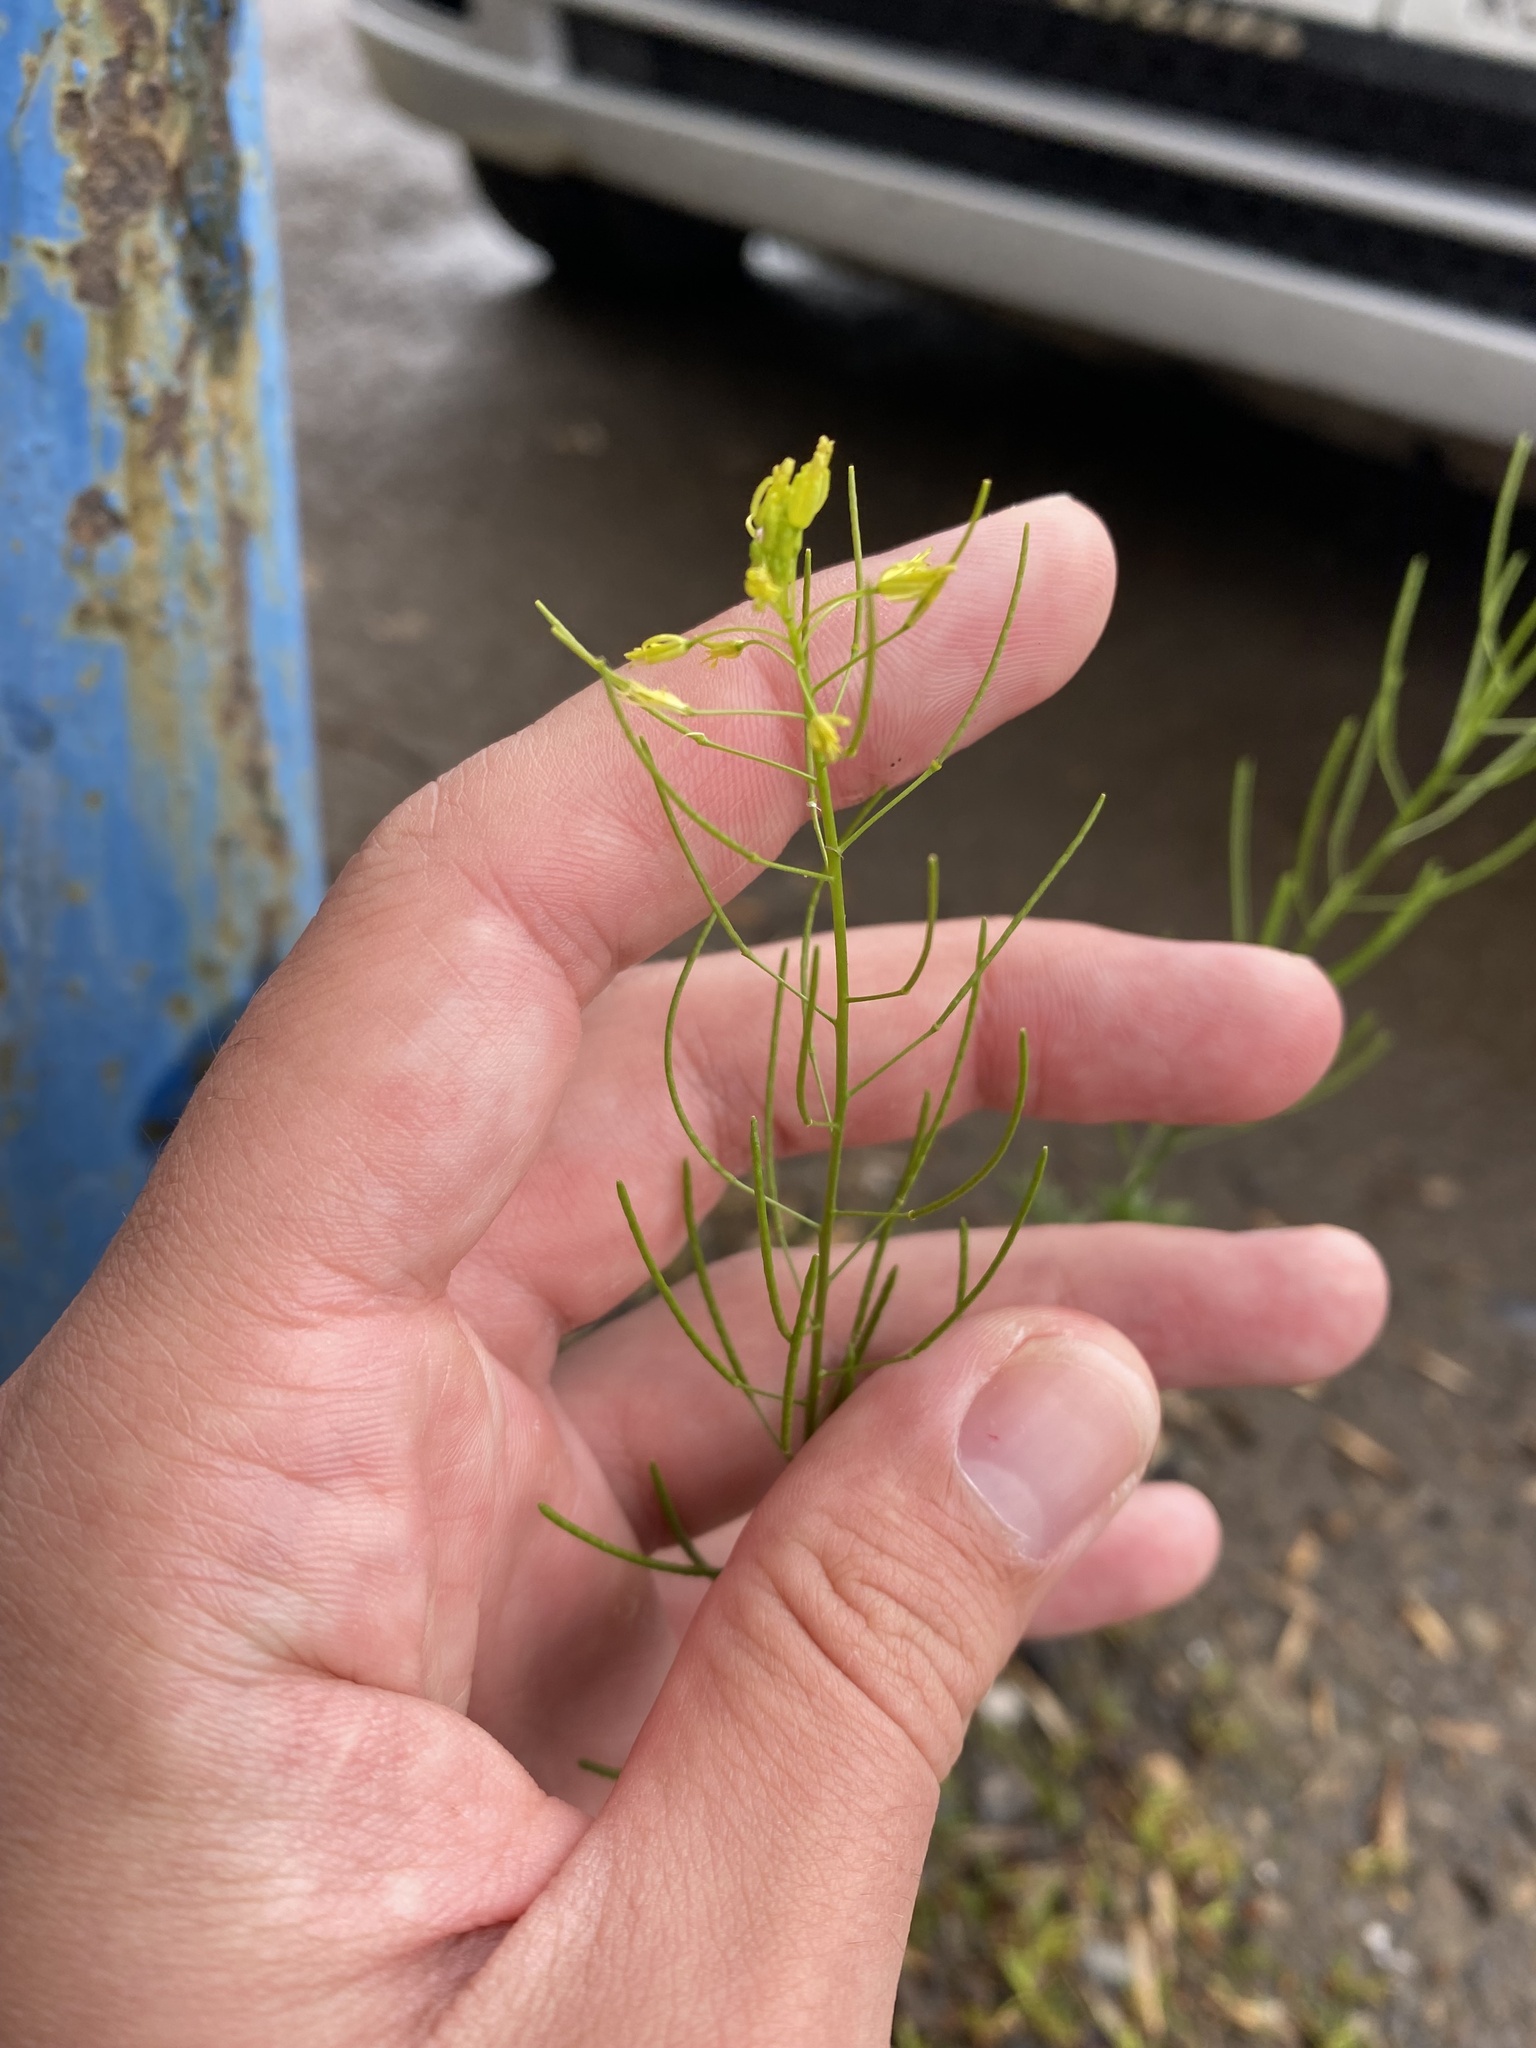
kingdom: Plantae
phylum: Tracheophyta
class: Magnoliopsida
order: Brassicales
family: Brassicaceae
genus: Descurainia
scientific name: Descurainia sophia
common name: Flixweed
